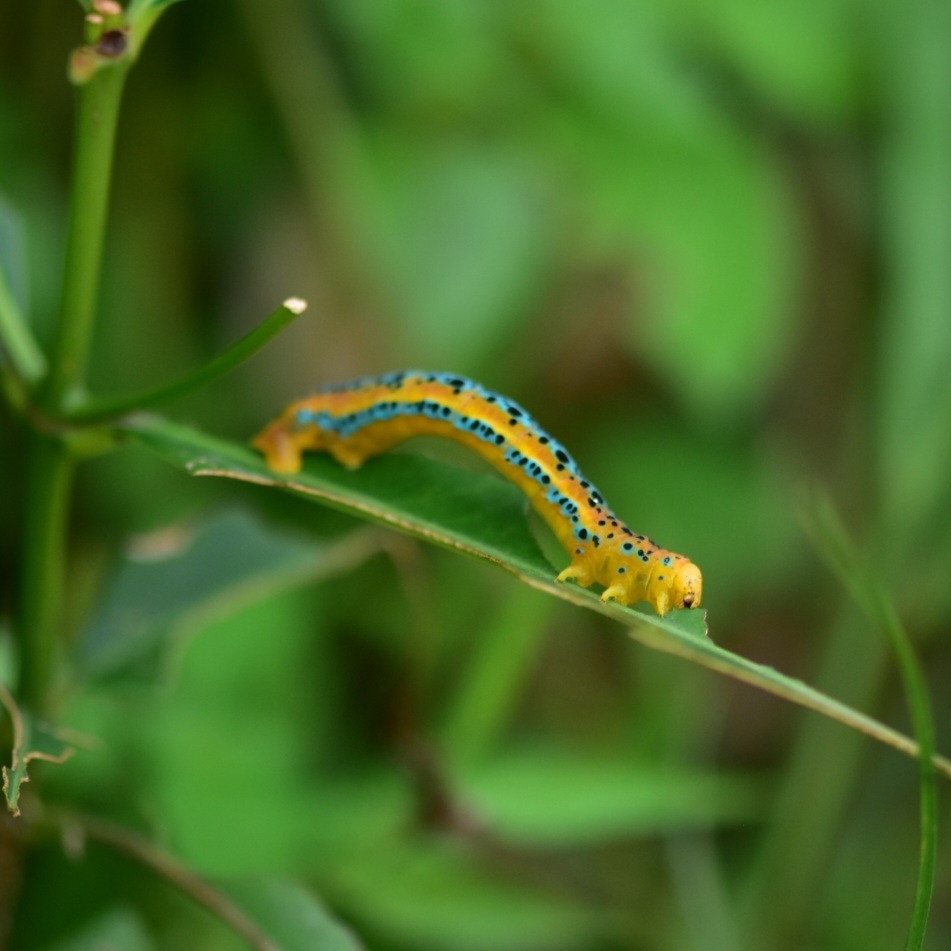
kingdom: Animalia
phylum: Arthropoda
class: Insecta
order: Lepidoptera
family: Geometridae
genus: Dysphania
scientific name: Dysphania percota
